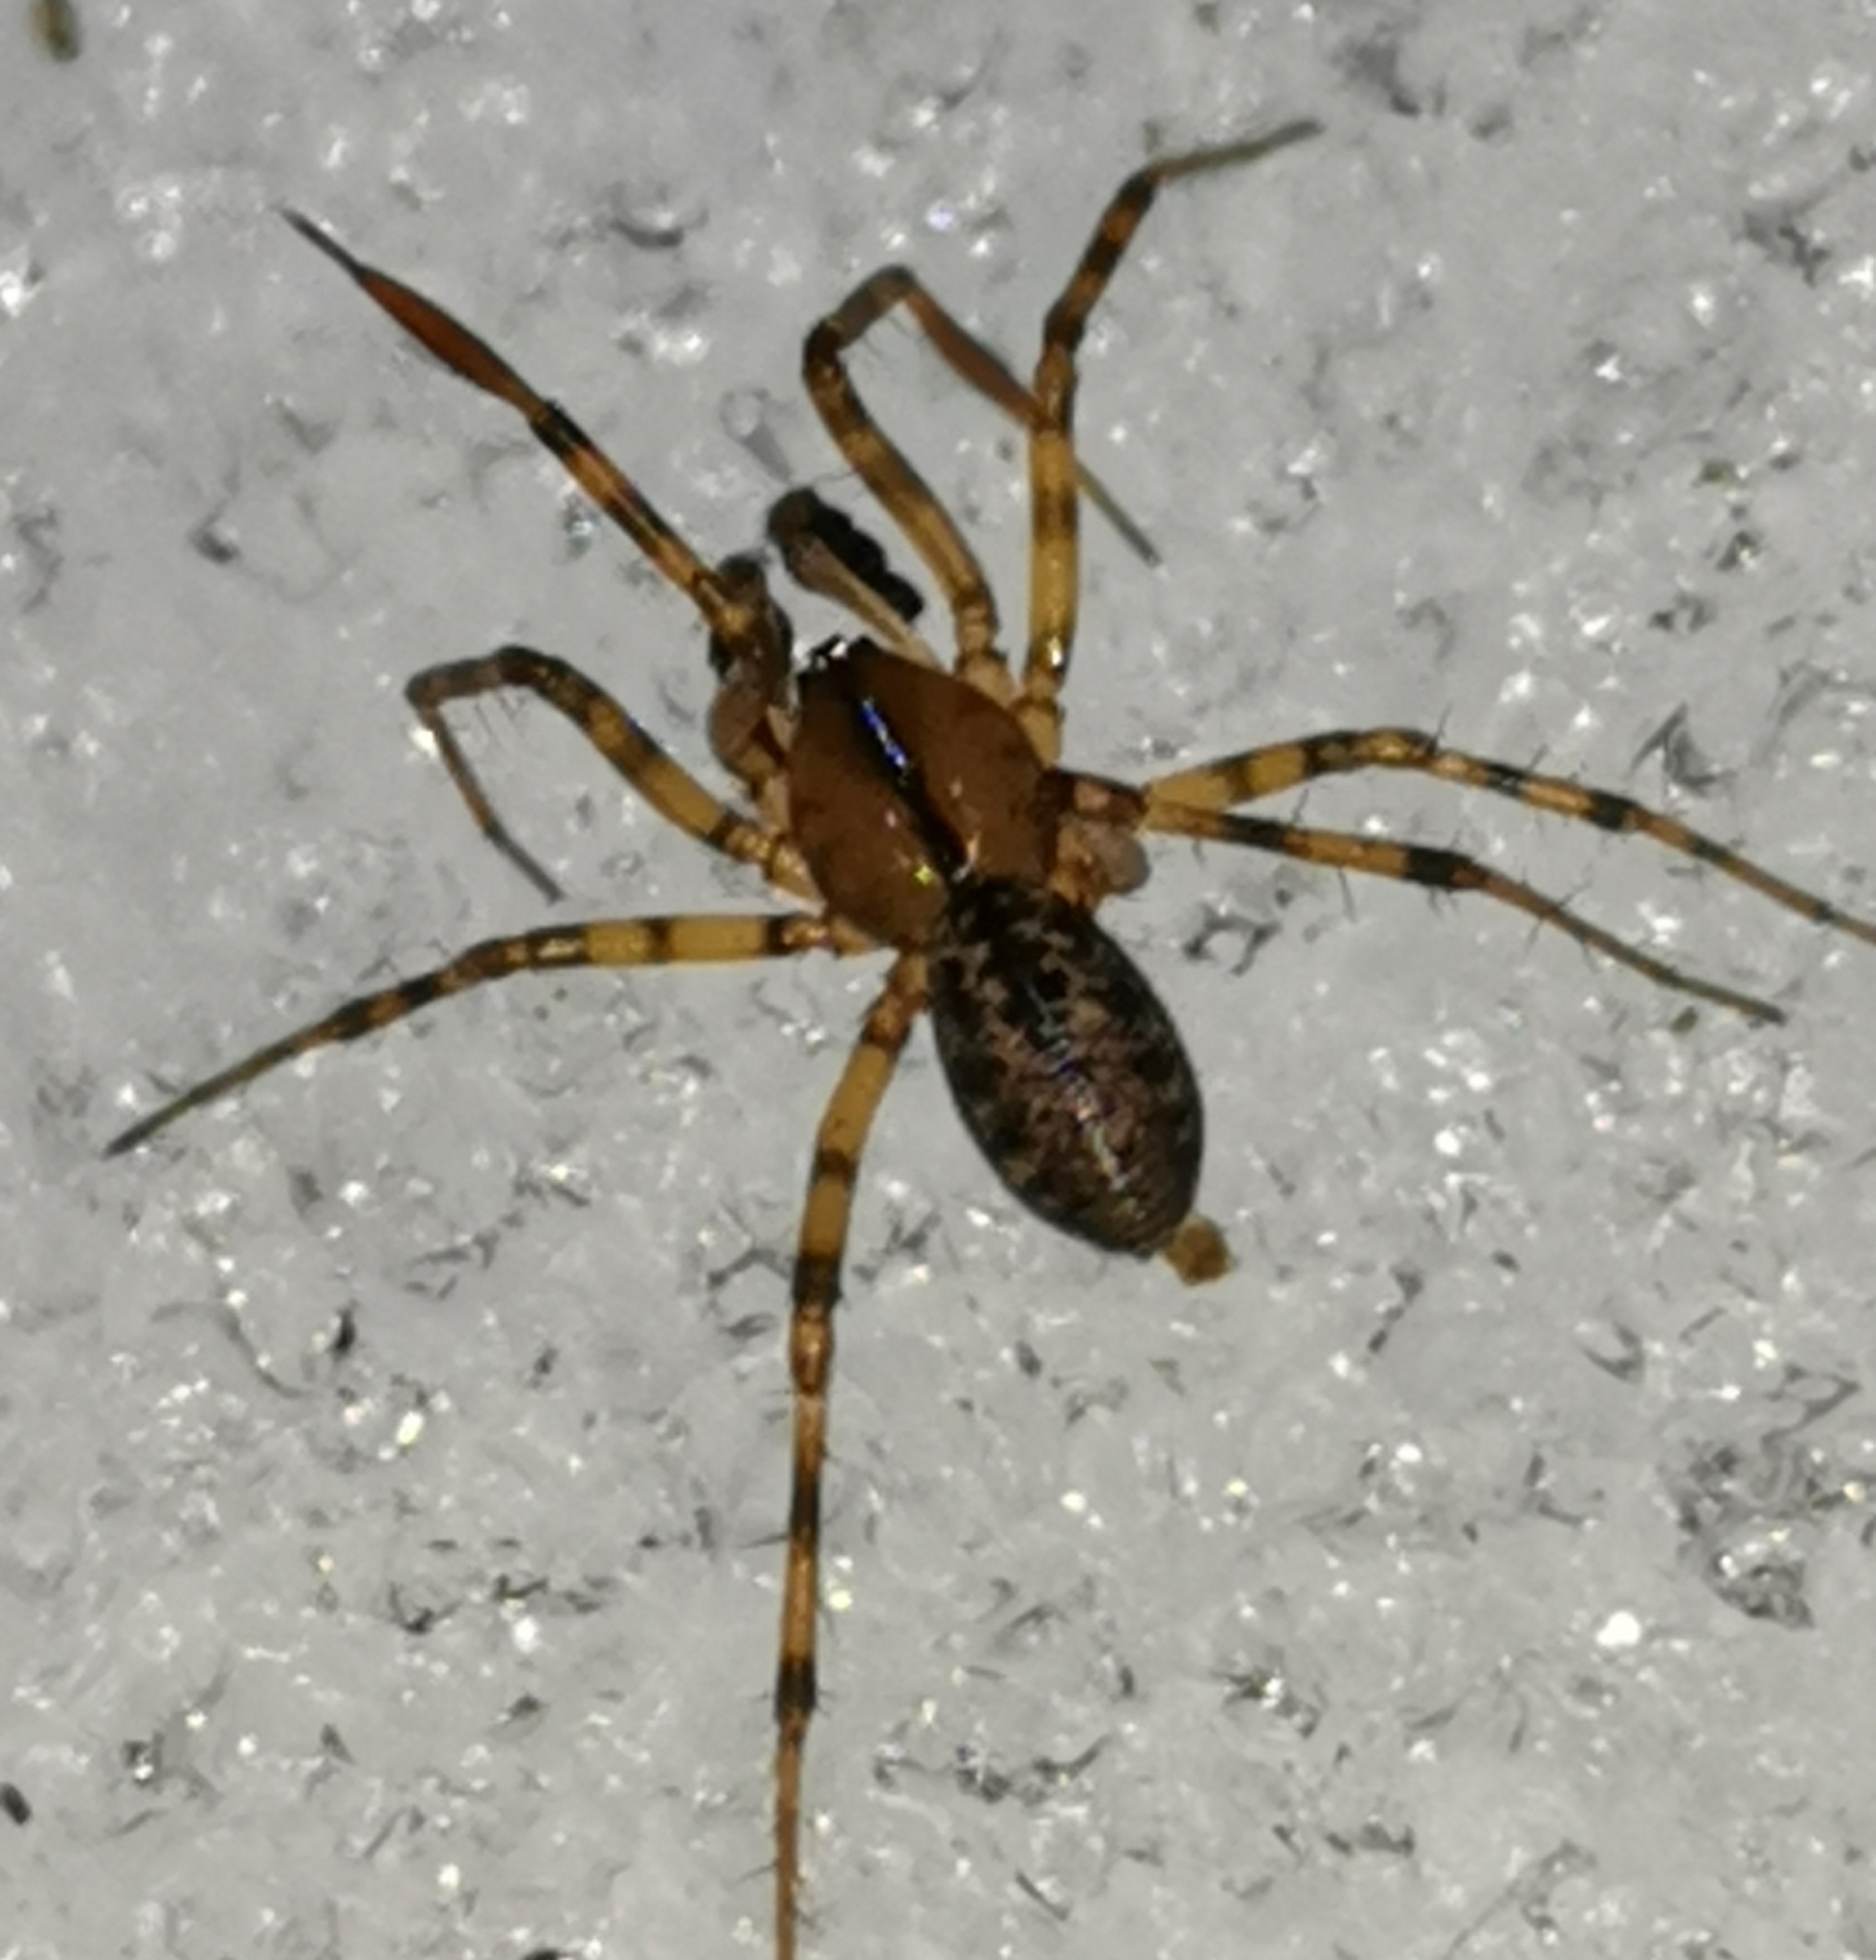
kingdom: Animalia
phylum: Arthropoda
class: Arachnida
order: Araneae
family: Linyphiidae
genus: Stemonyphantes
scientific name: Stemonyphantes lineatus
